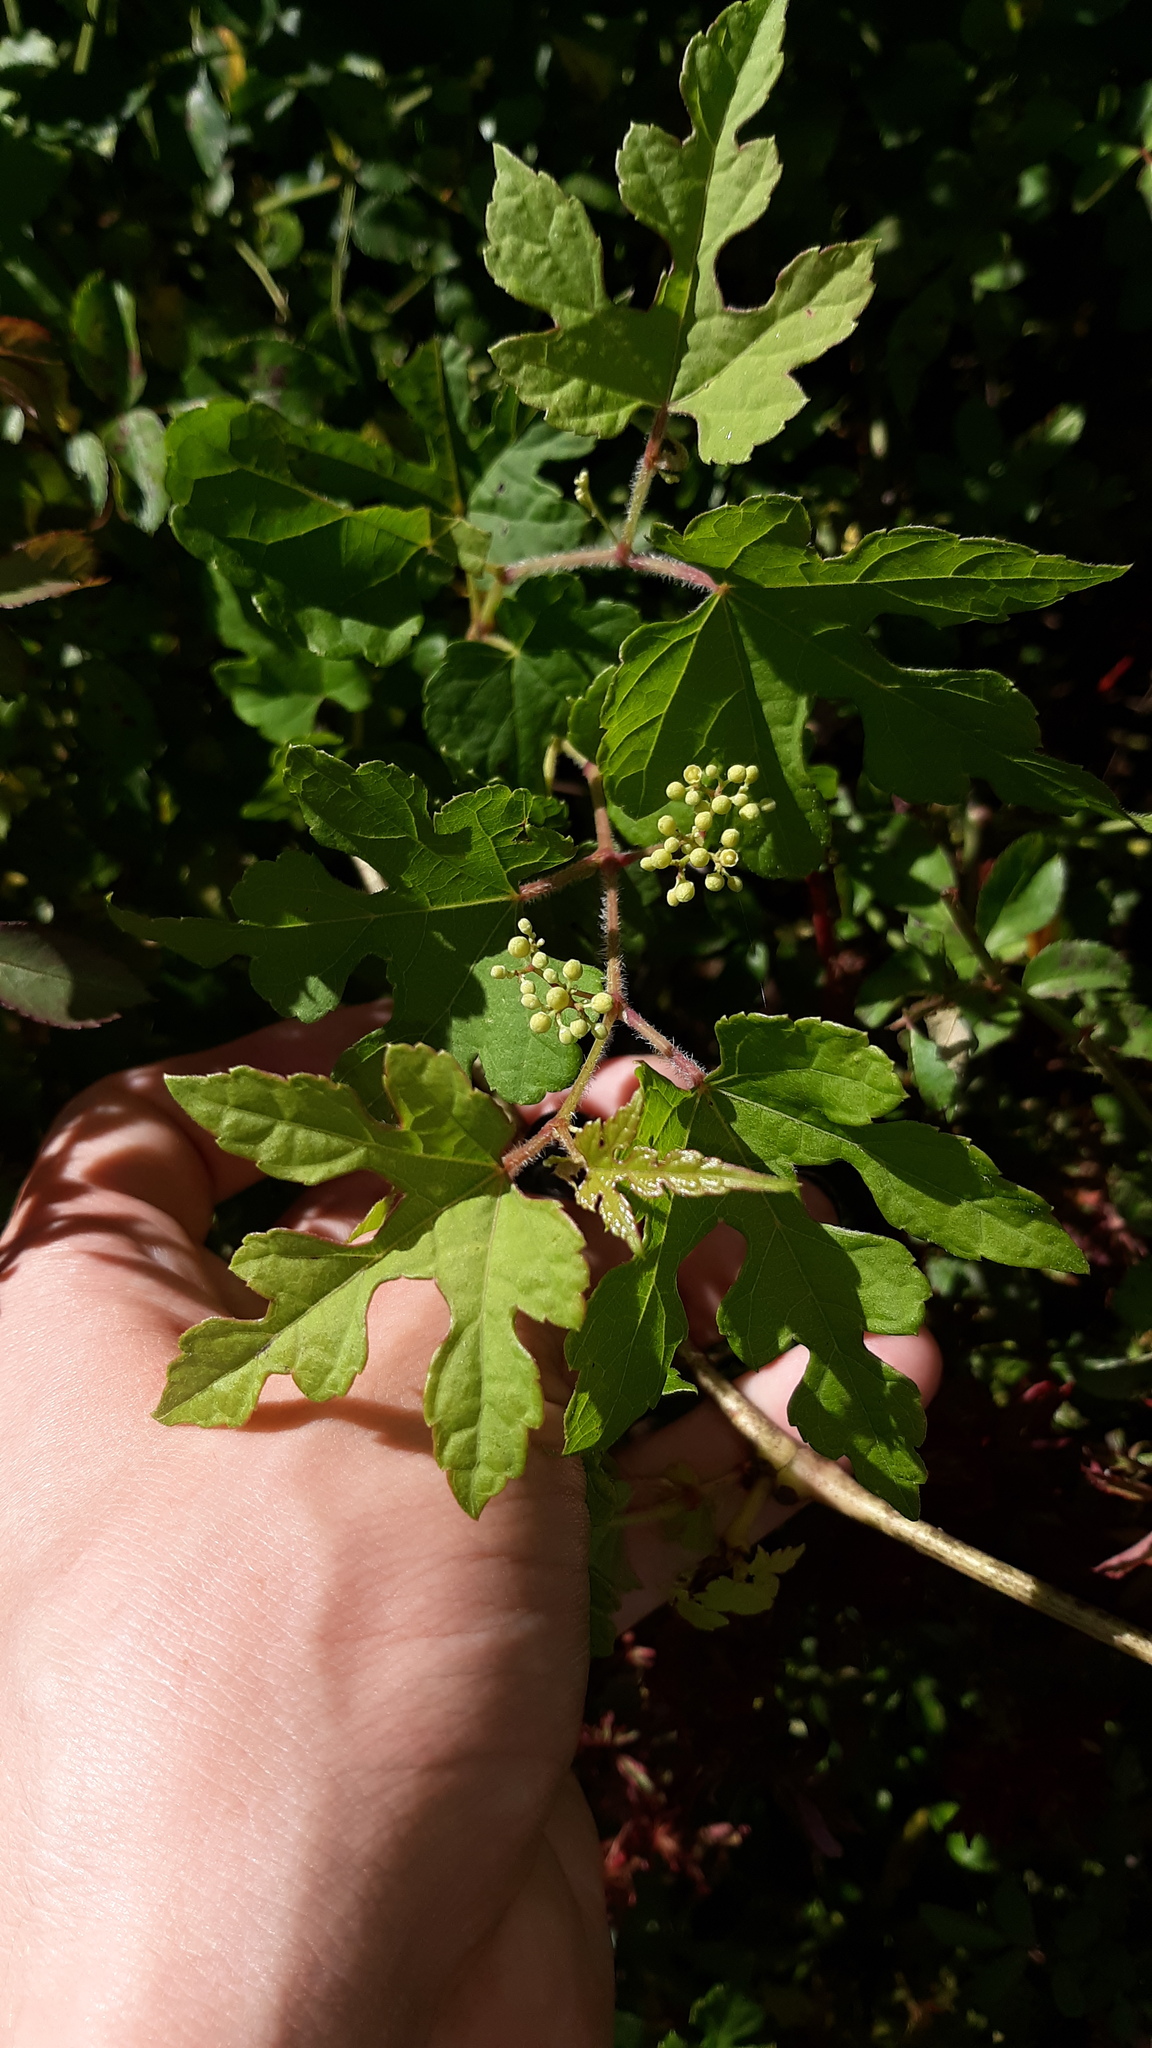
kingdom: Plantae
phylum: Tracheophyta
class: Magnoliopsida
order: Vitales
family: Vitaceae
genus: Ampelopsis
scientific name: Ampelopsis glandulosa
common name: Amur peppervine
